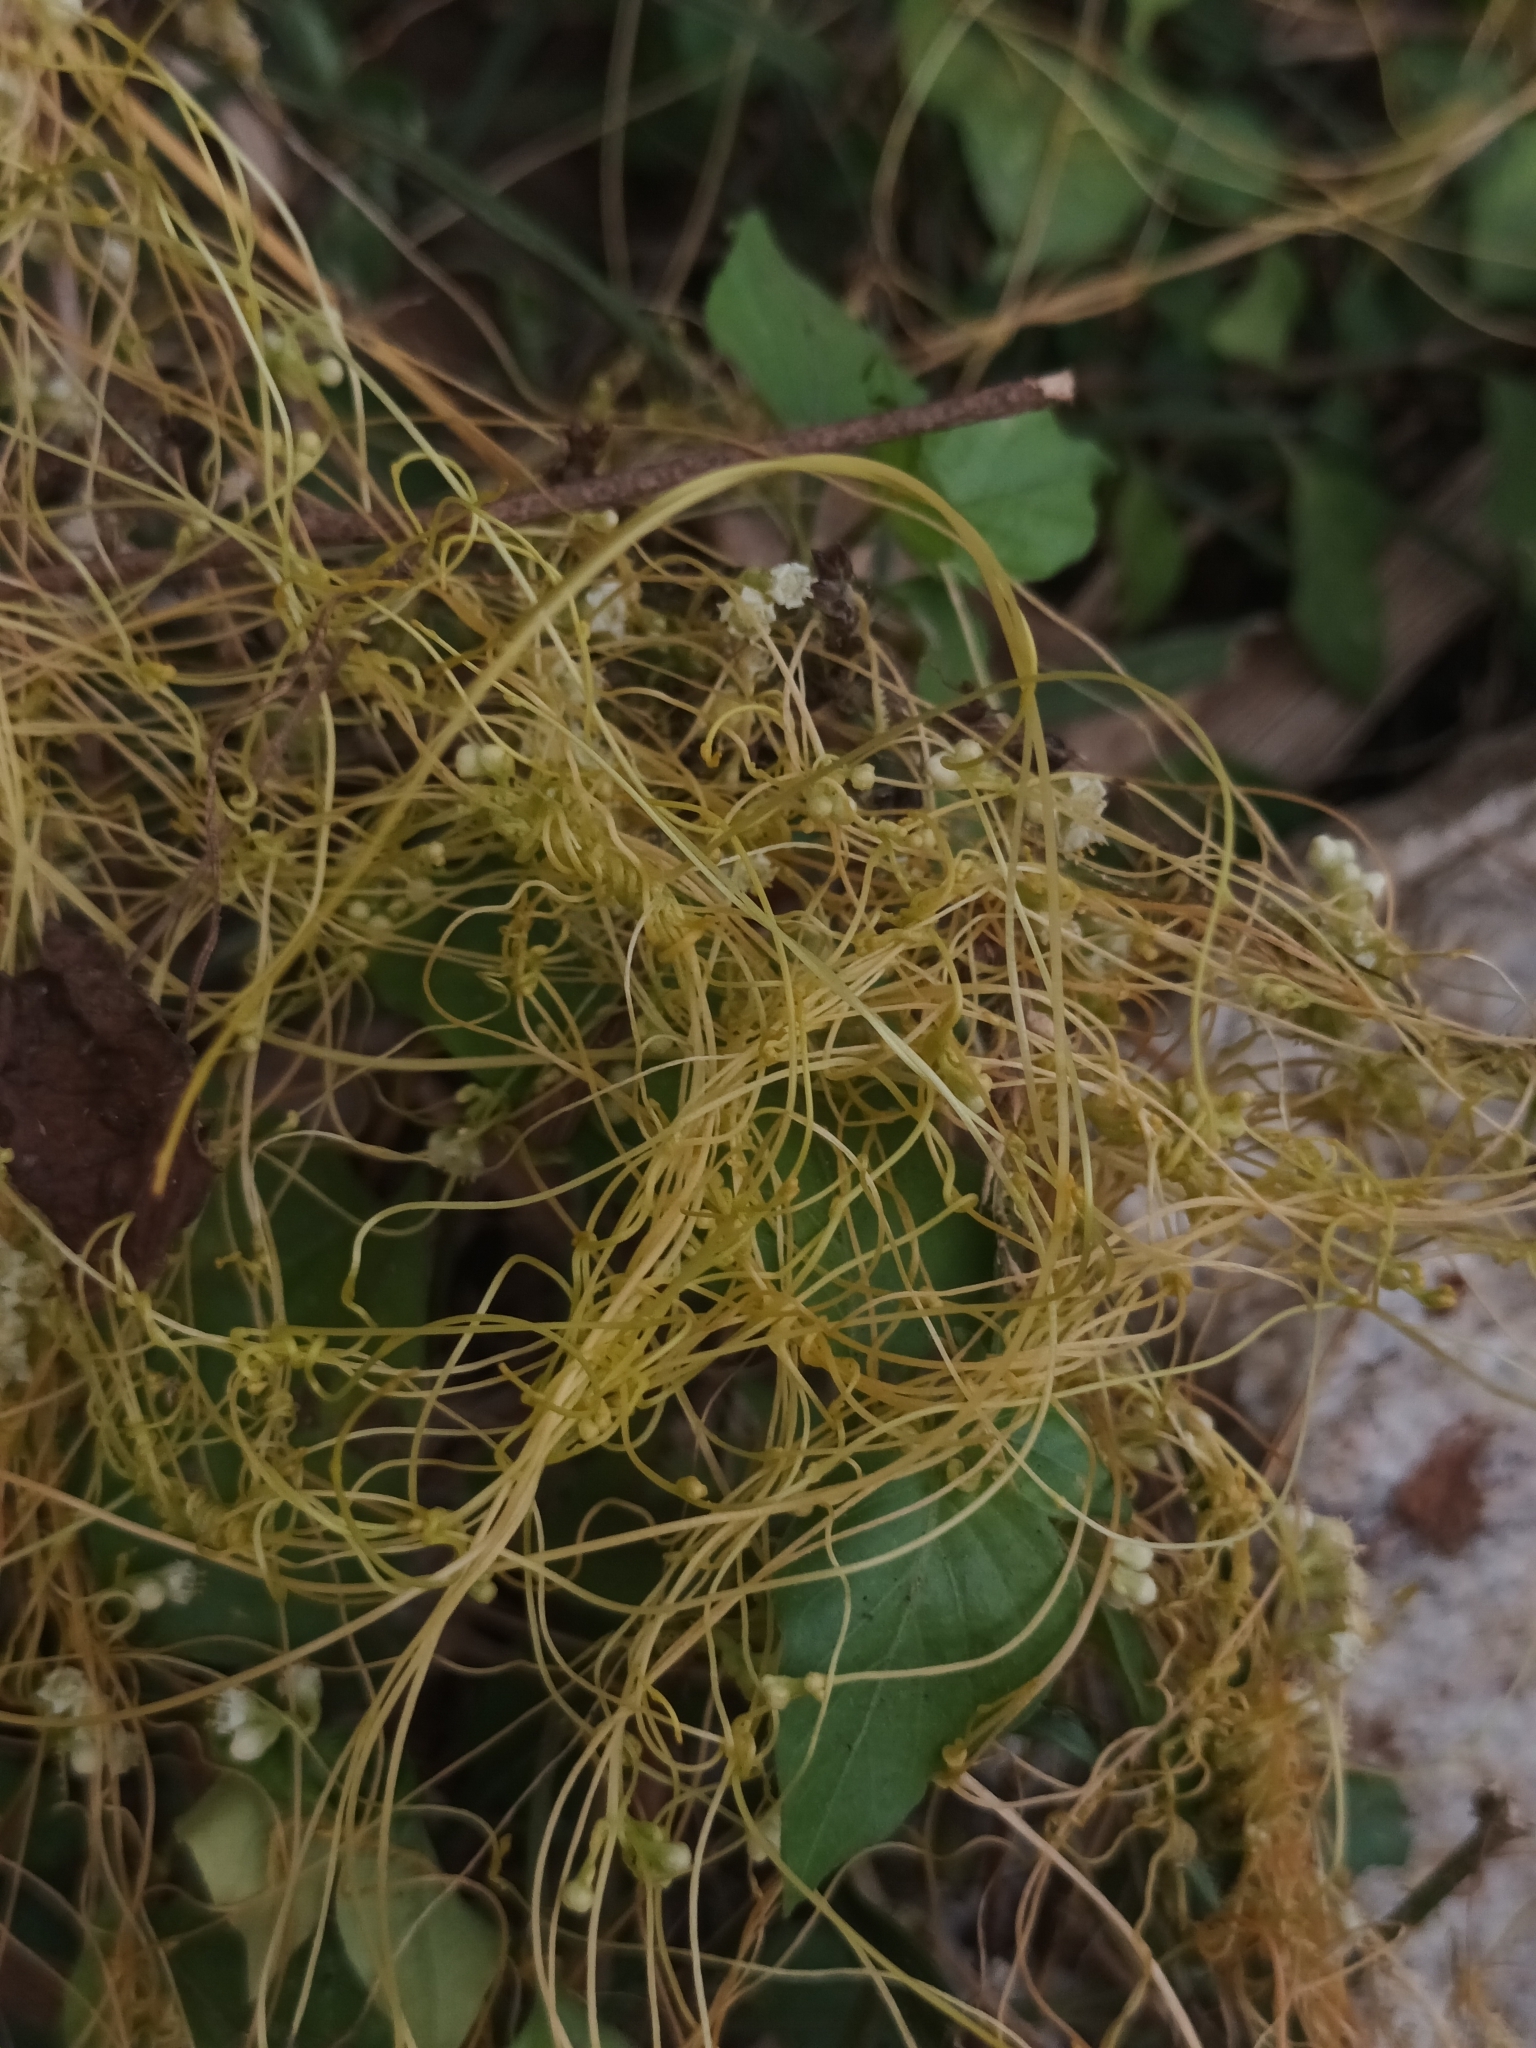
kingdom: Plantae
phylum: Tracheophyta
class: Magnoliopsida
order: Solanales
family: Convolvulaceae
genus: Cuscuta
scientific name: Cuscuta campestris
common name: Yellow dodder
